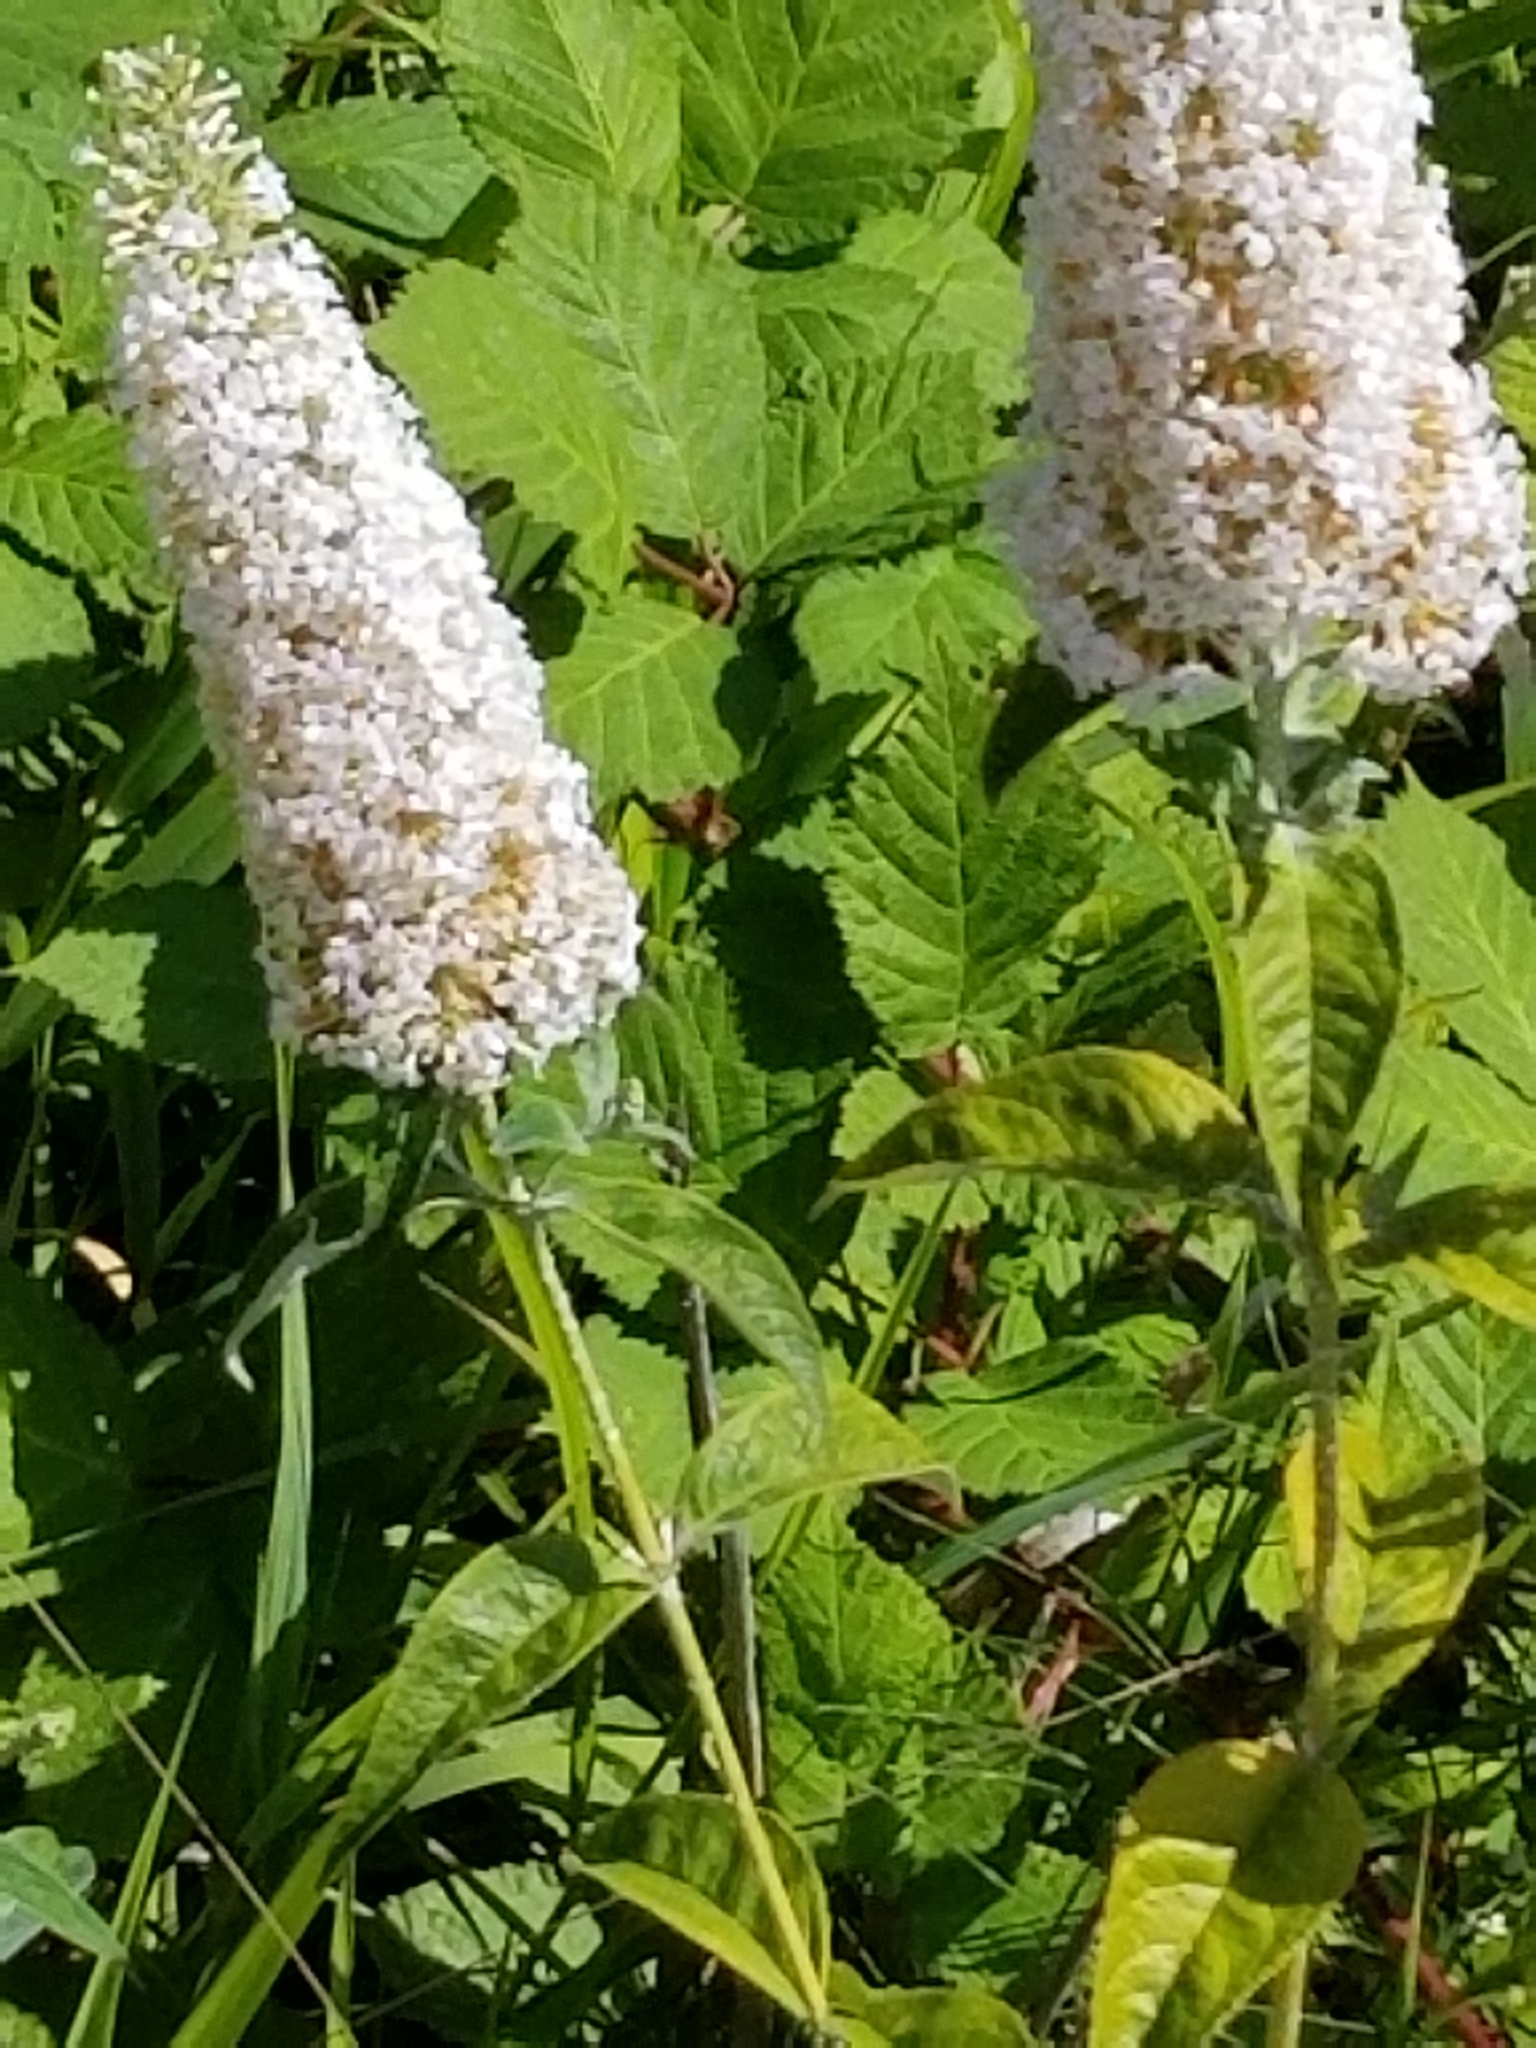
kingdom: Plantae
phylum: Tracheophyta
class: Magnoliopsida
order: Lamiales
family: Scrophulariaceae
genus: Buddleja
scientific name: Buddleja davidii
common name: Butterfly-bush
